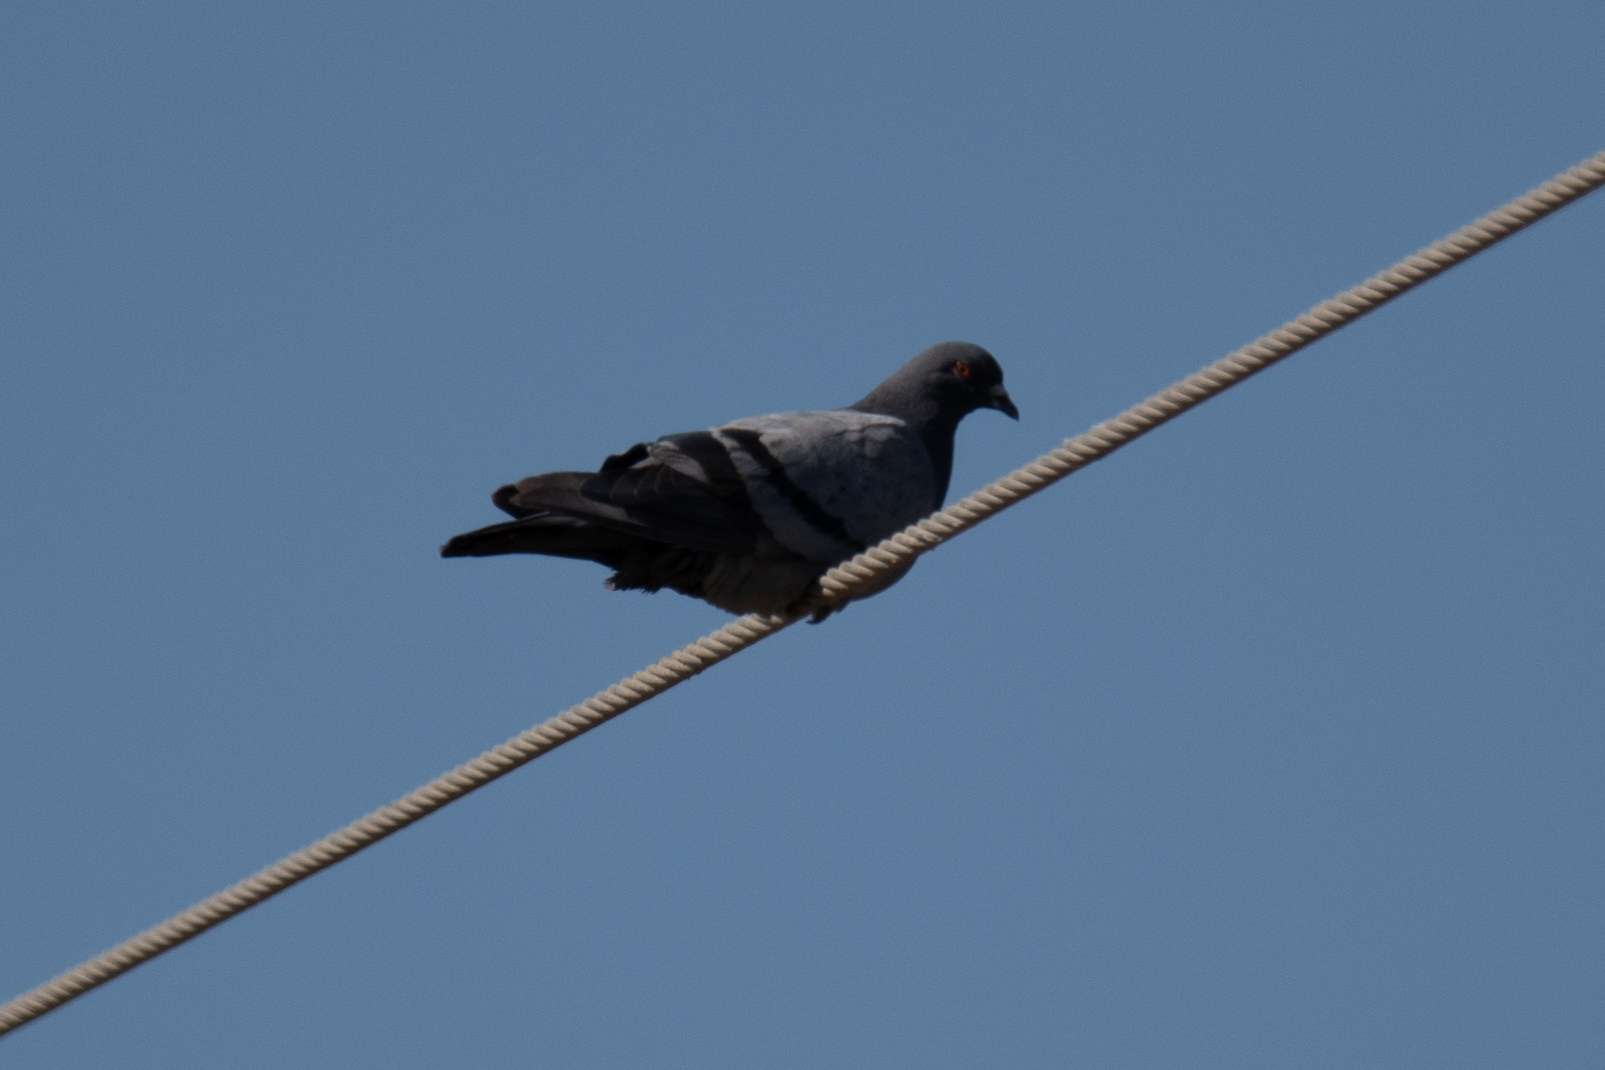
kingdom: Animalia
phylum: Chordata
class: Aves
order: Columbiformes
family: Columbidae
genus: Columba
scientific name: Columba livia
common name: Rock pigeon
